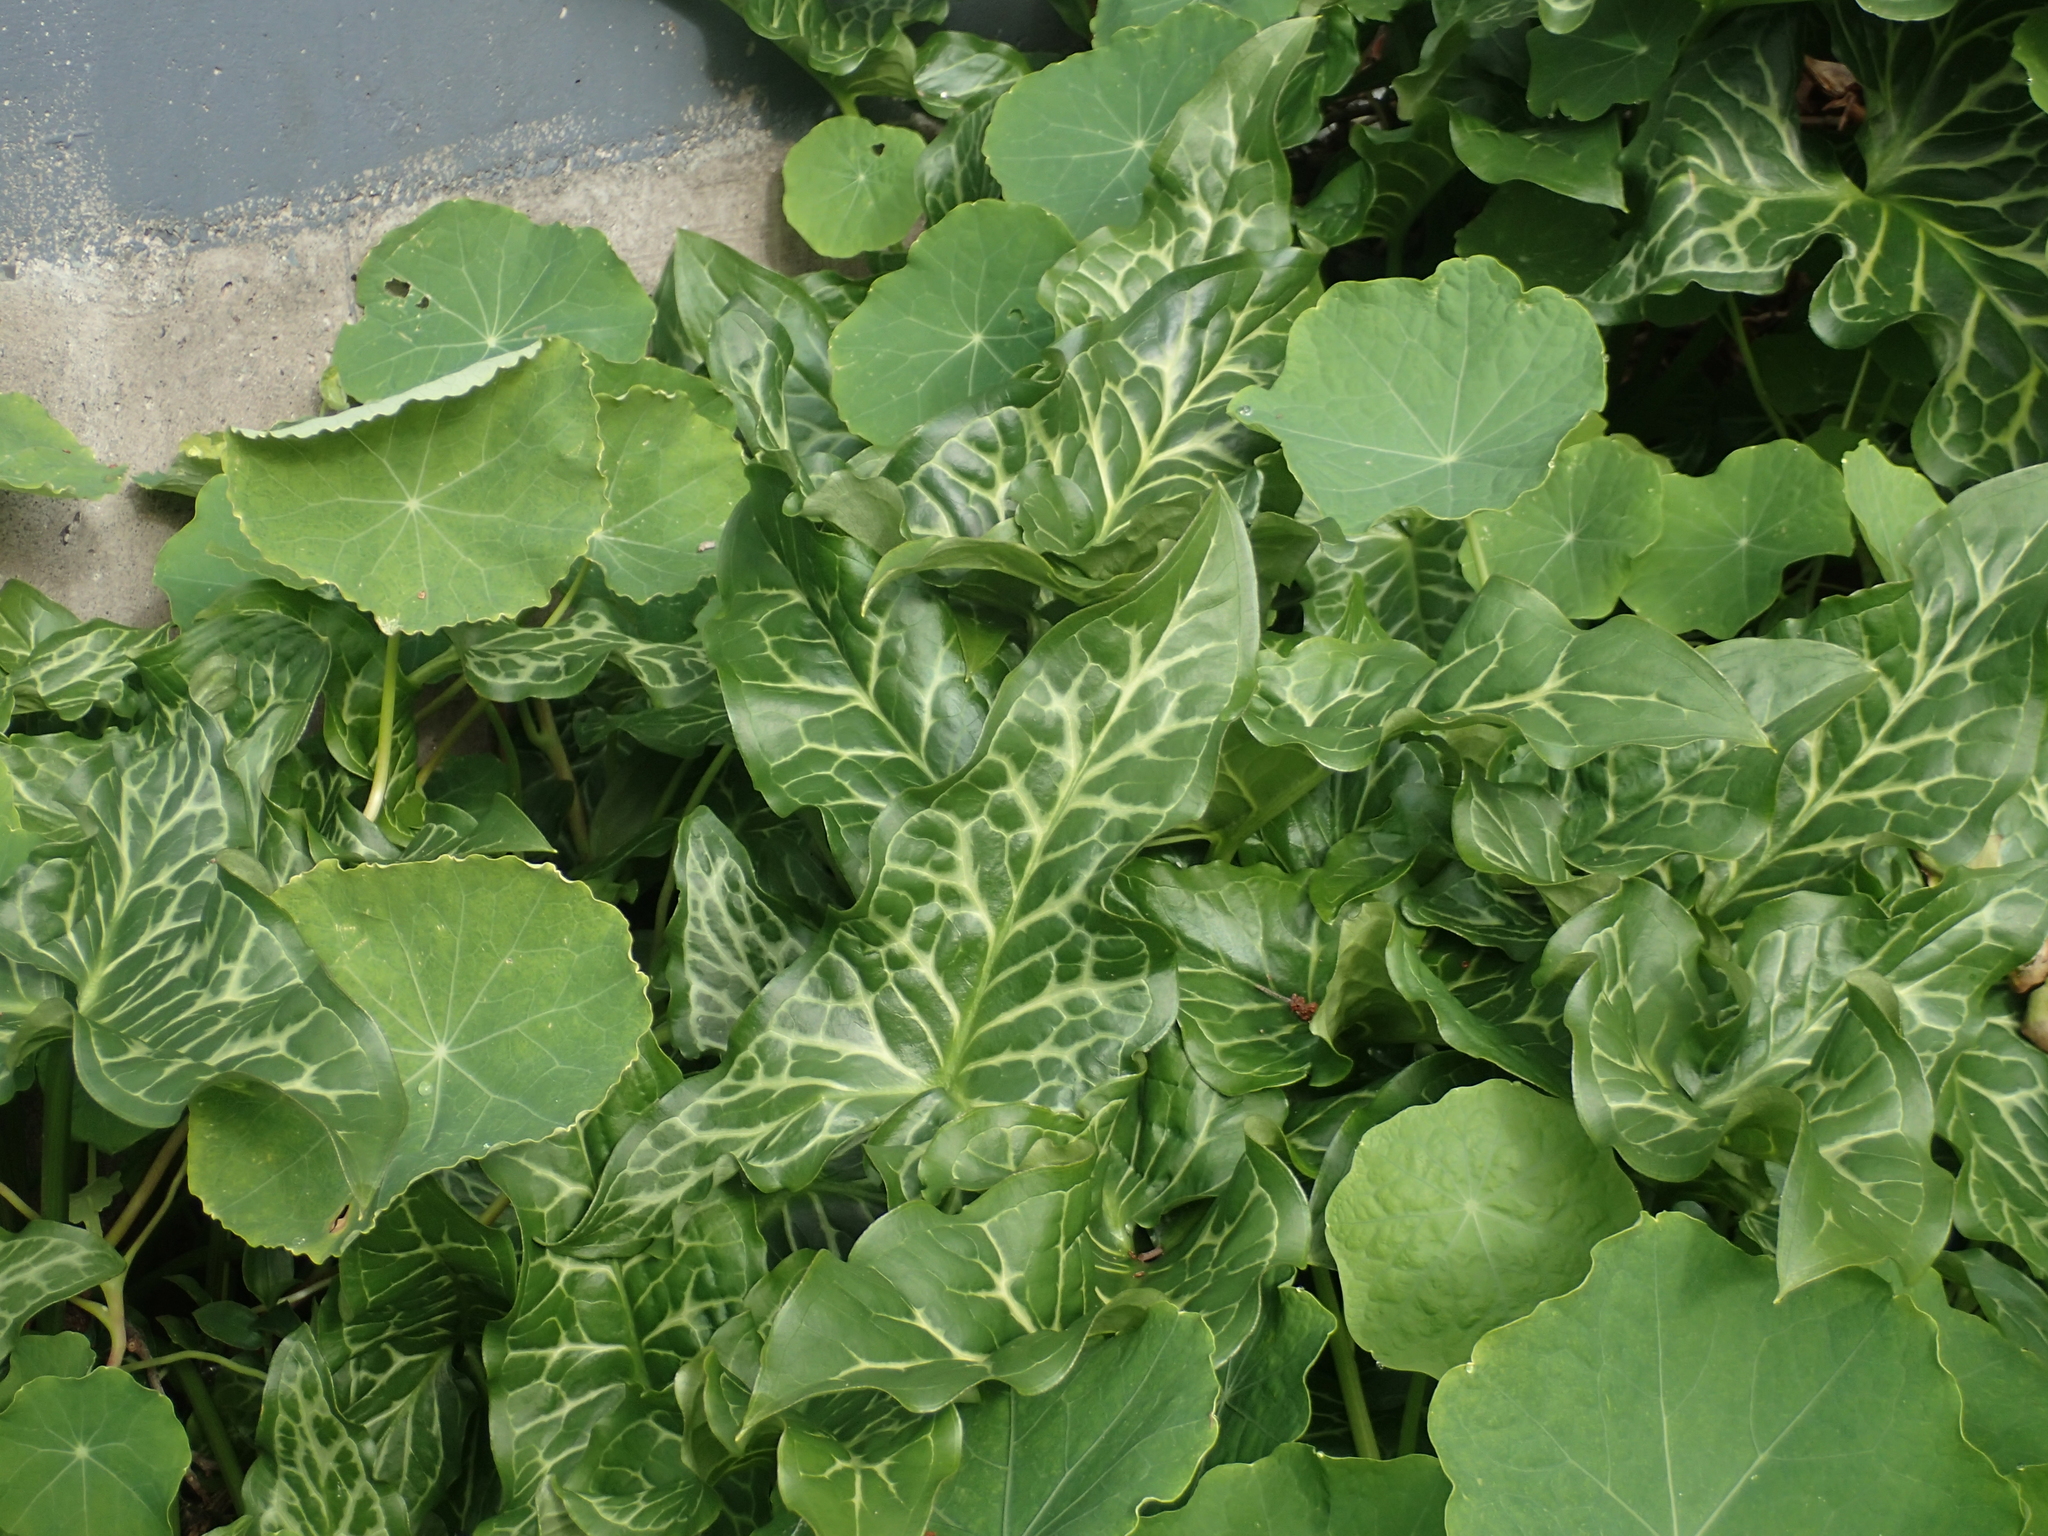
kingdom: Plantae
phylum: Tracheophyta
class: Liliopsida
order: Alismatales
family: Araceae
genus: Arum
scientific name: Arum italicum
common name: Italian lords-and-ladies
